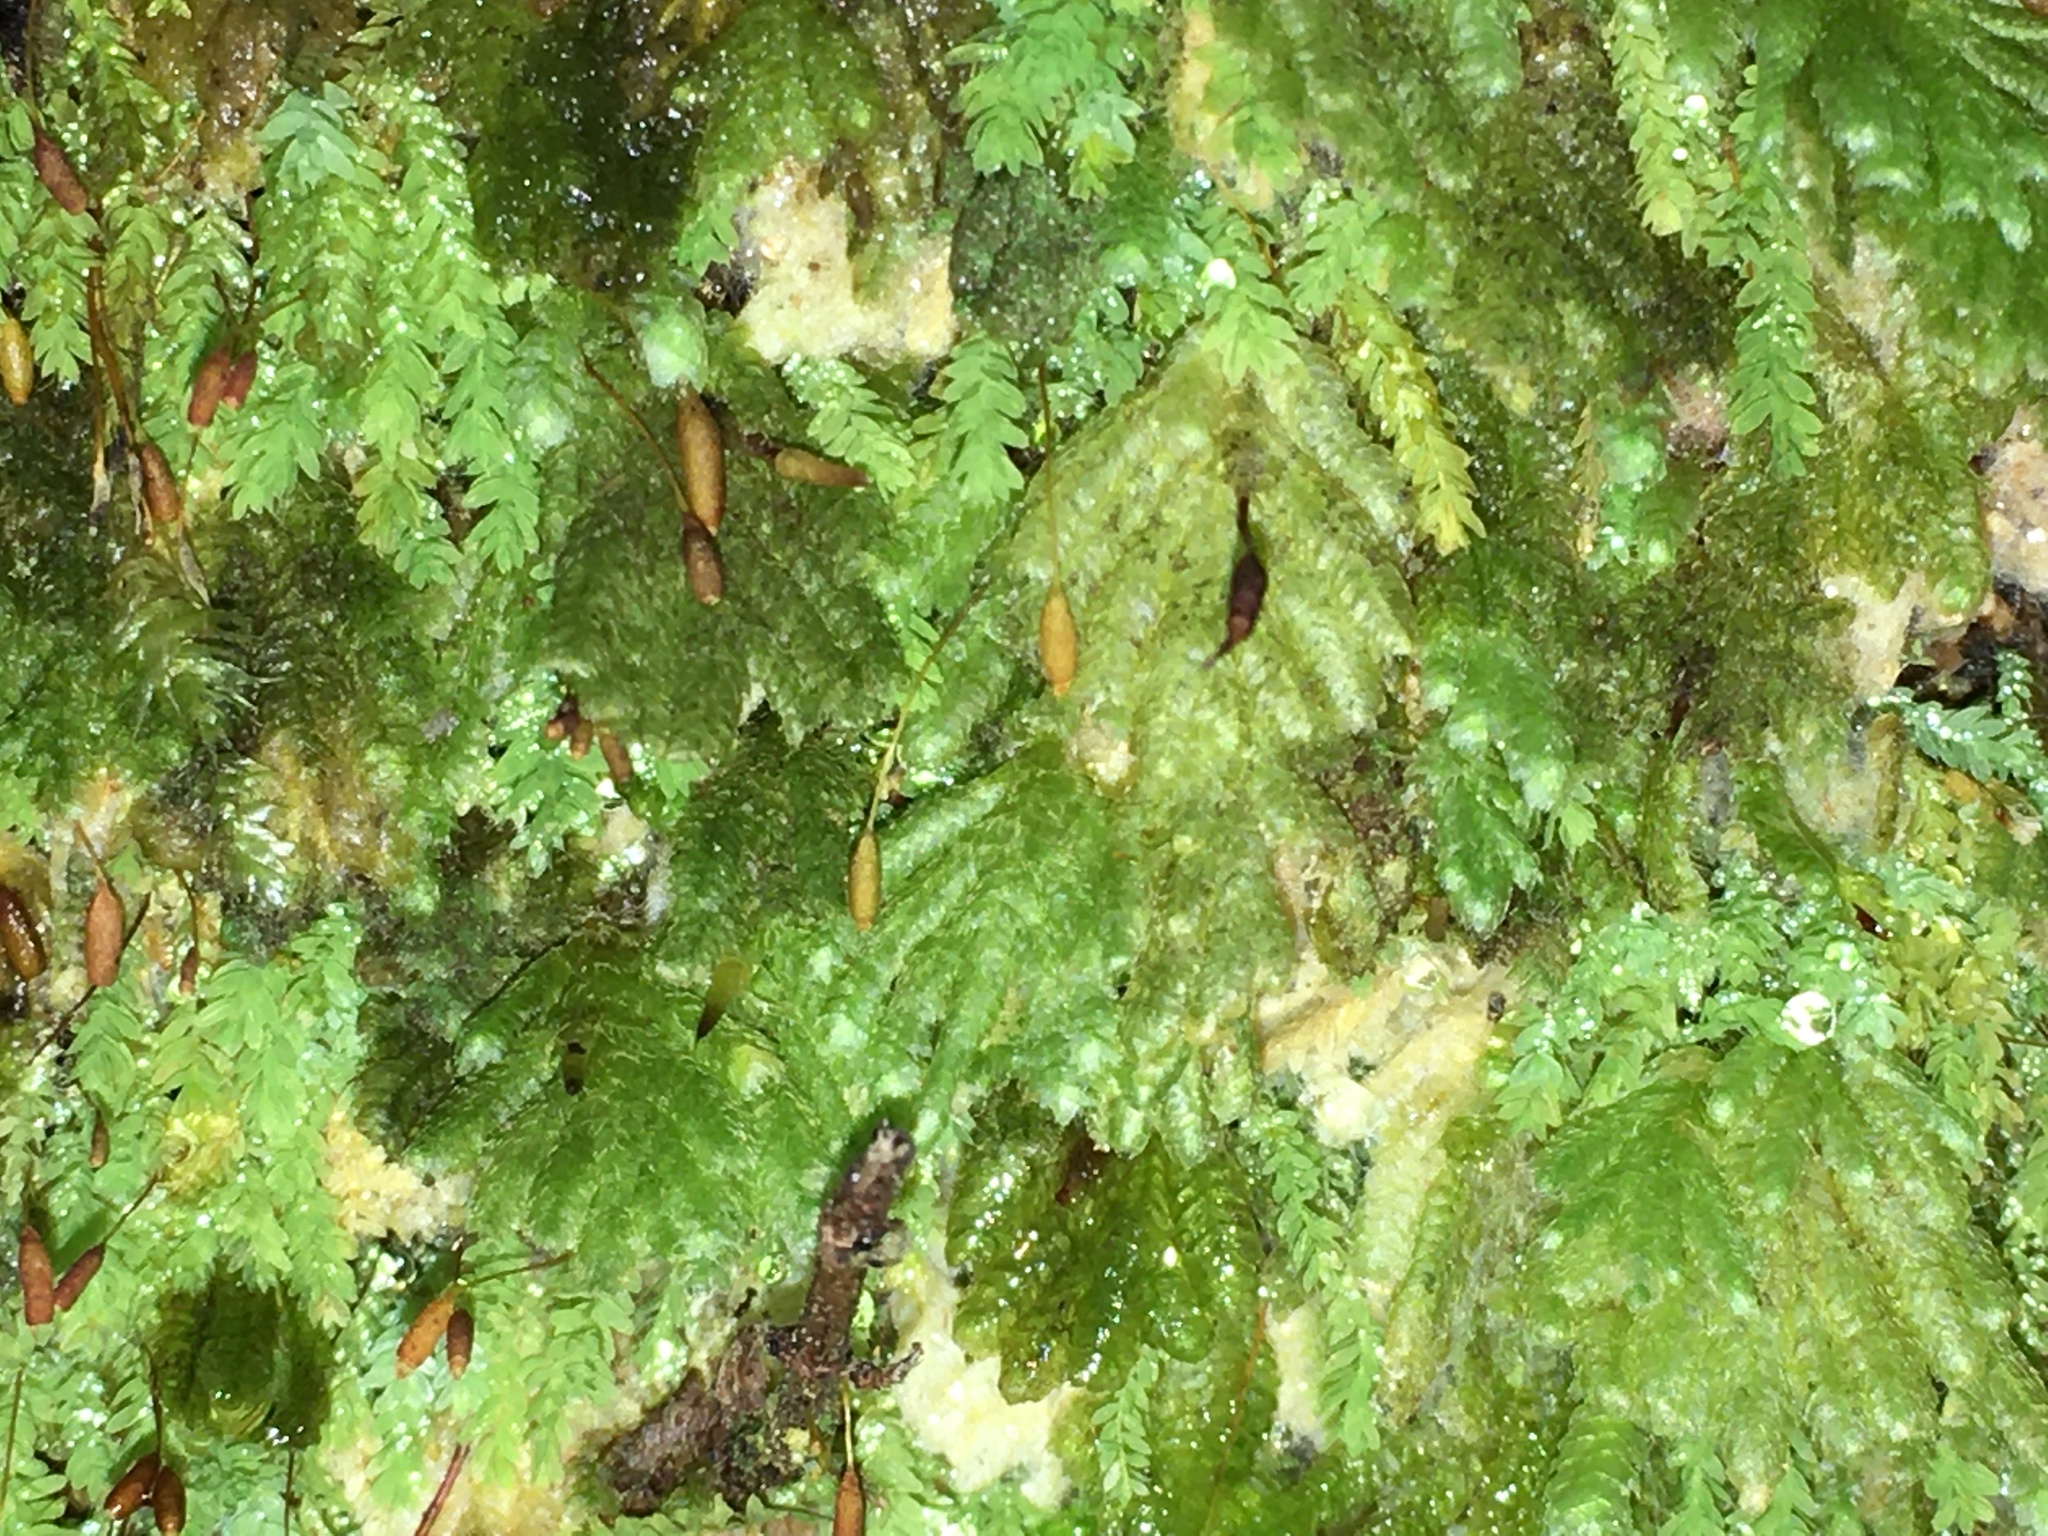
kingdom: Plantae
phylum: Bryophyta
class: Bryopsida
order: Hypopterygiales
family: Hypopterygiaceae
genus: Catharomnion
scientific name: Catharomnion ciliatum
